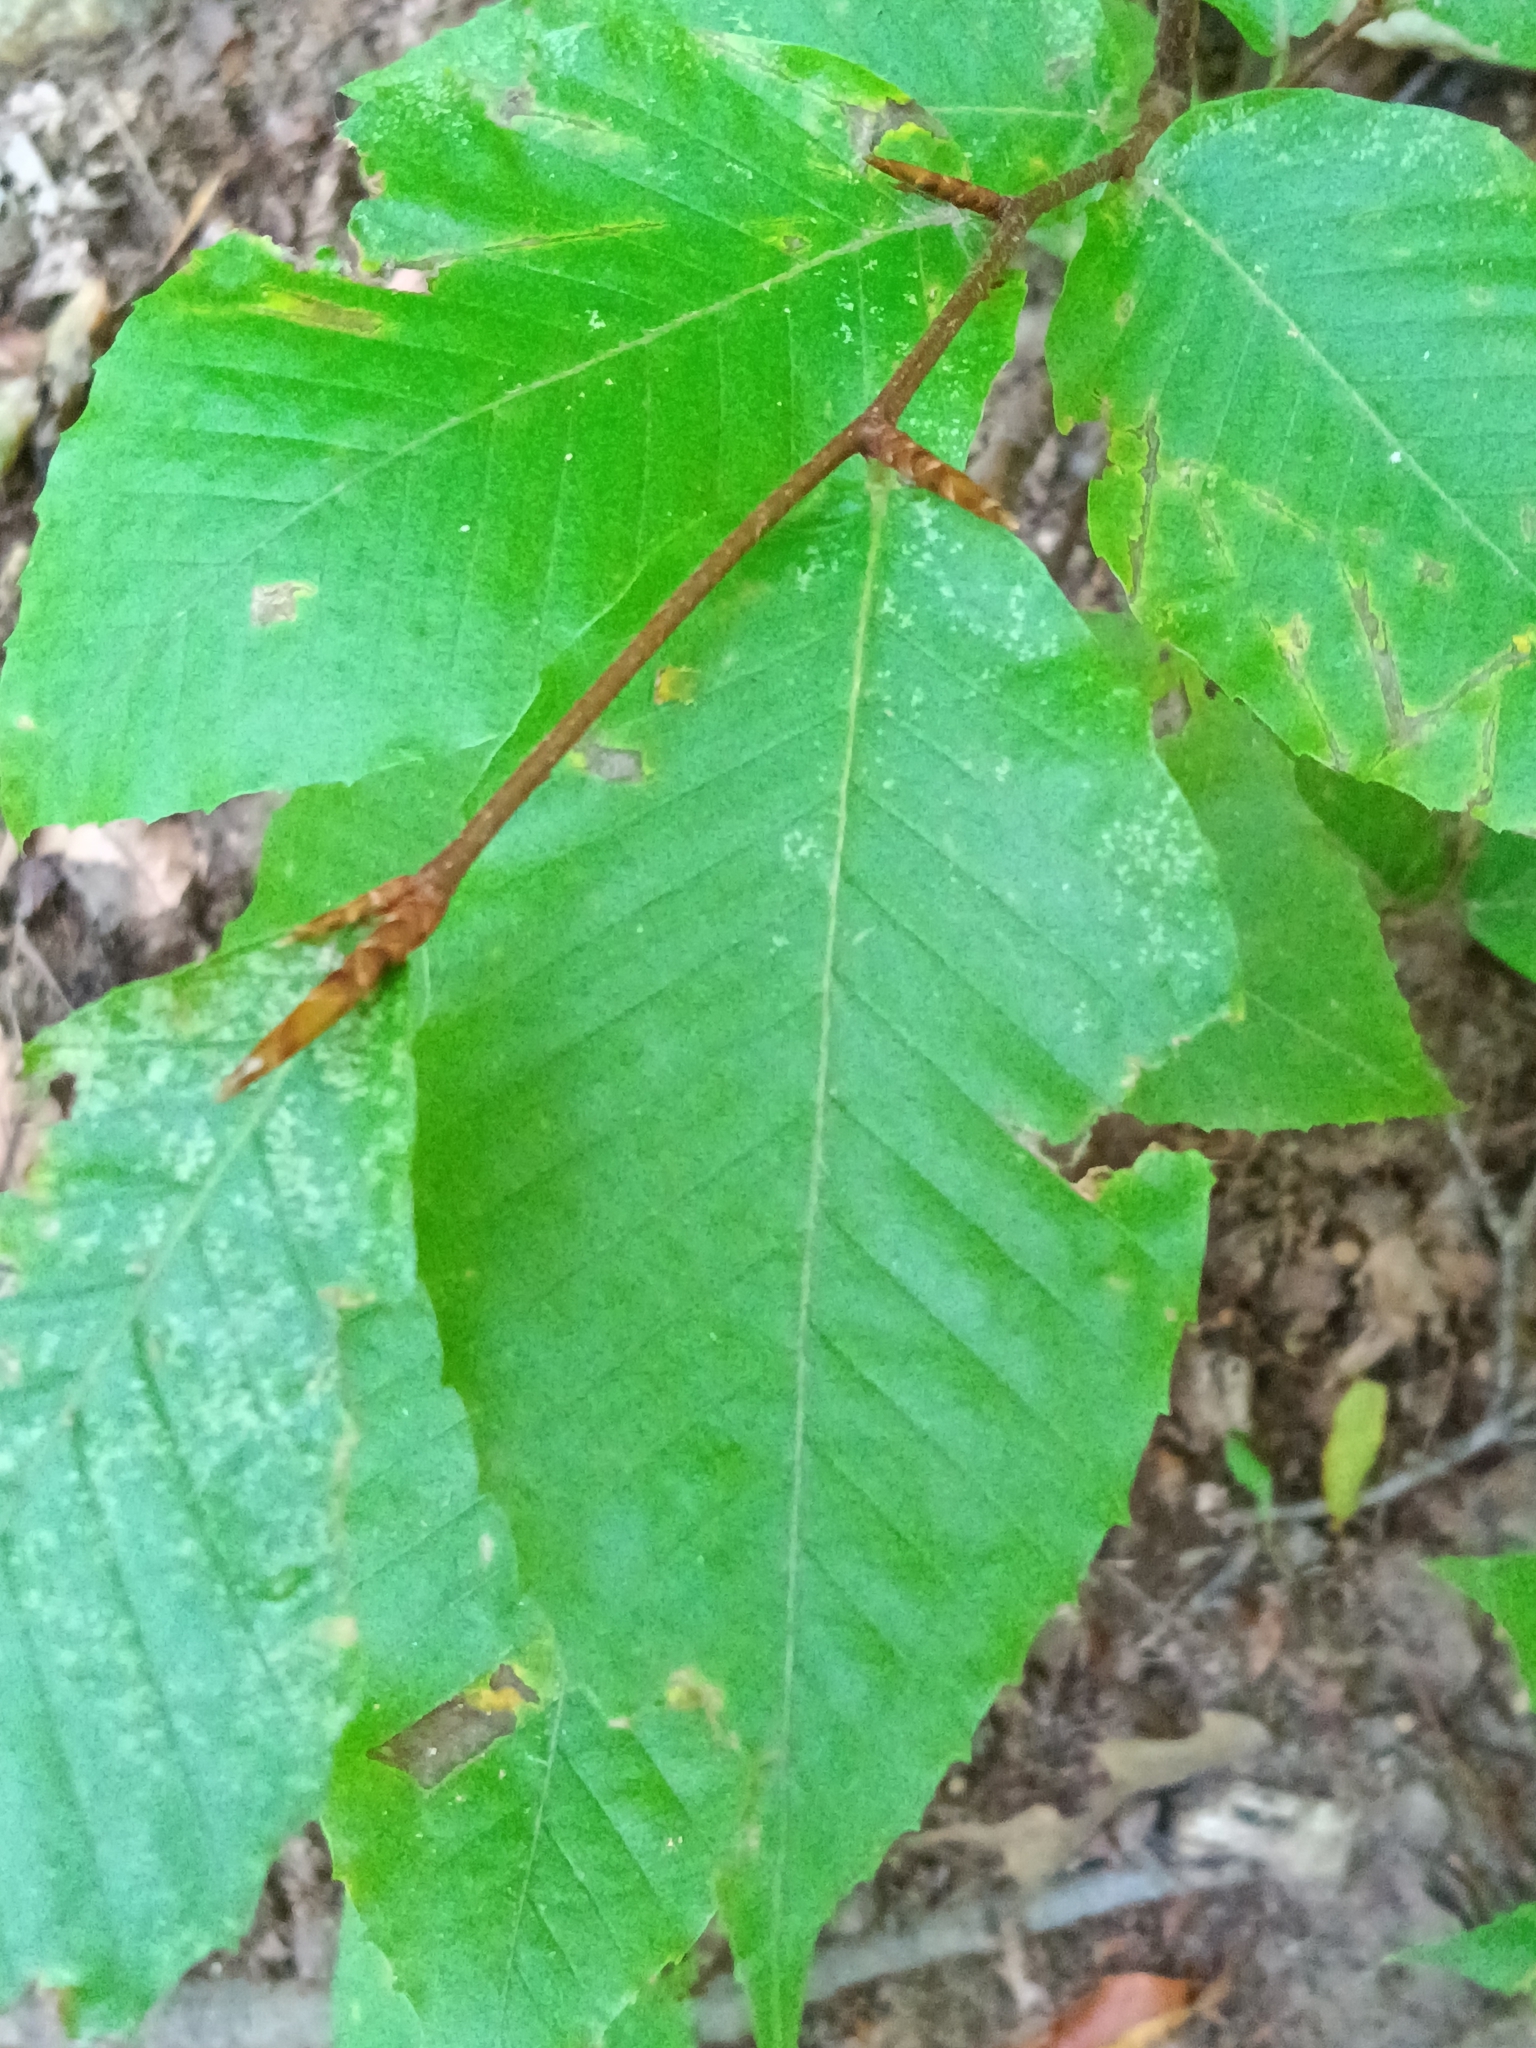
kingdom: Plantae
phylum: Tracheophyta
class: Magnoliopsida
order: Fagales
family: Fagaceae
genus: Fagus
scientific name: Fagus grandifolia
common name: American beech
